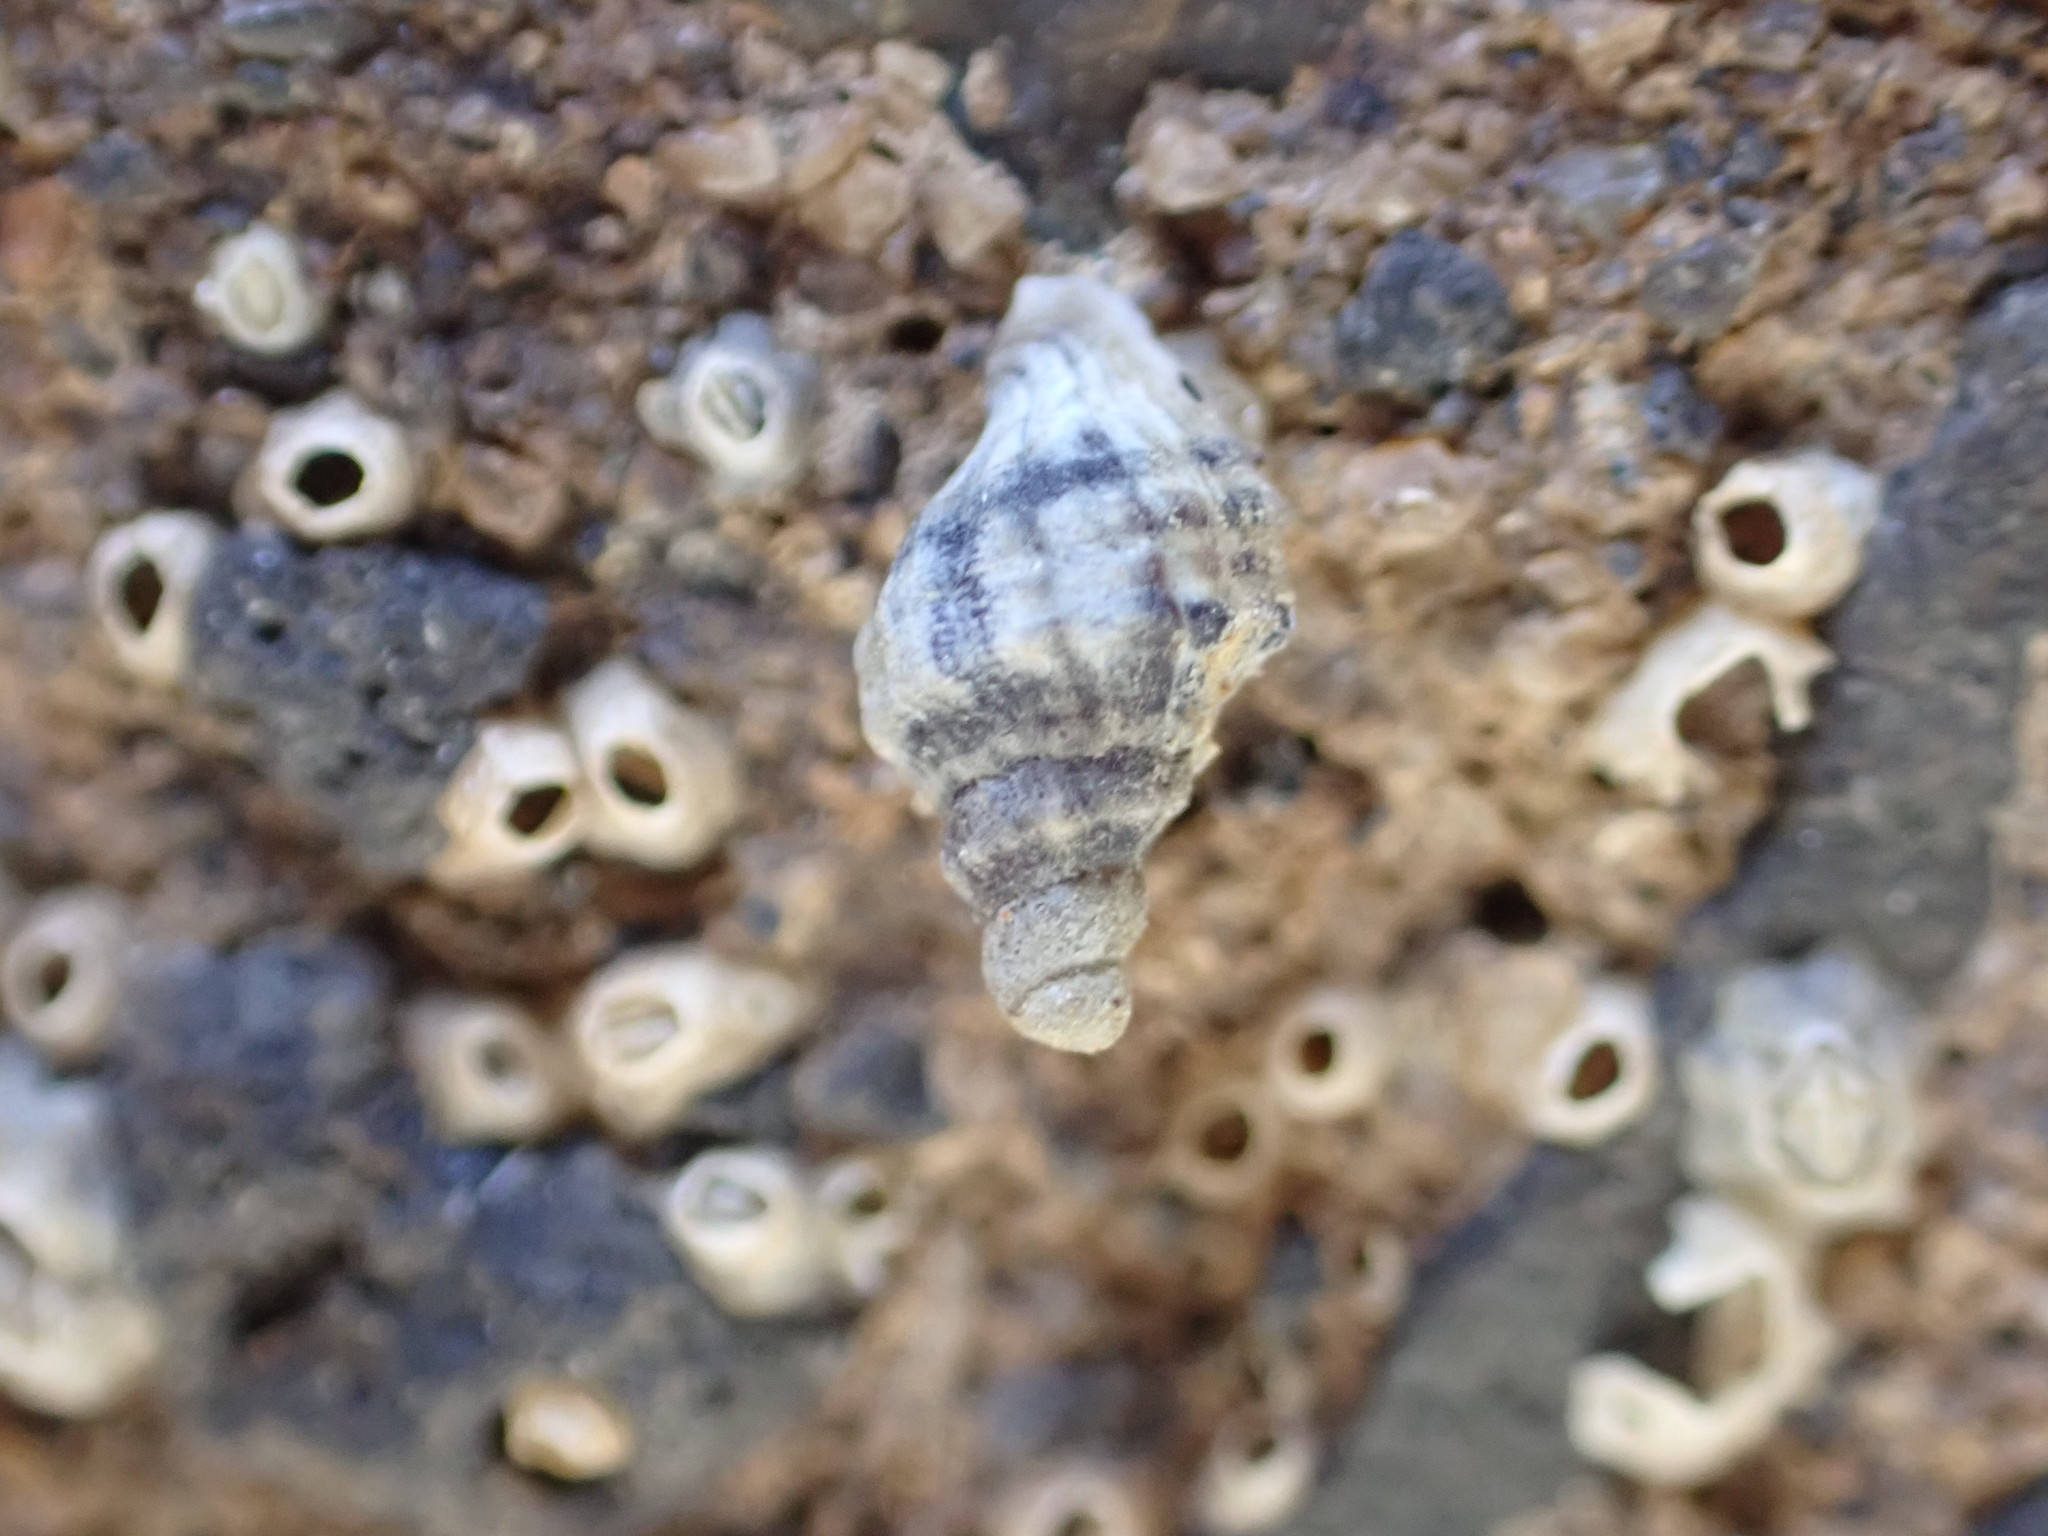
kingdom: Animalia
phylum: Mollusca
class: Gastropoda
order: Neogastropoda
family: Muricidae
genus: Haustrum
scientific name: Haustrum albomarginatum
